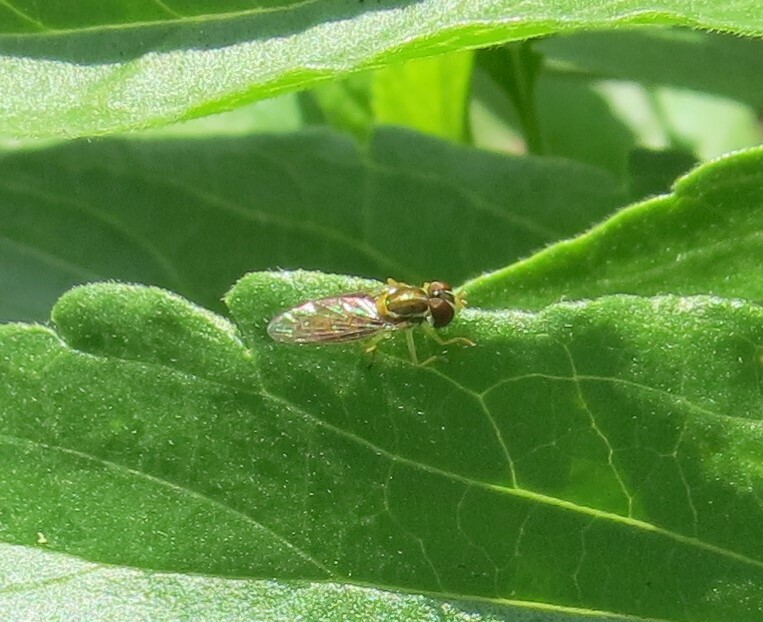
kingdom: Animalia
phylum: Arthropoda
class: Insecta
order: Diptera
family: Syrphidae
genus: Toxomerus
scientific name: Toxomerus marginatus
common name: Syrphid fly
